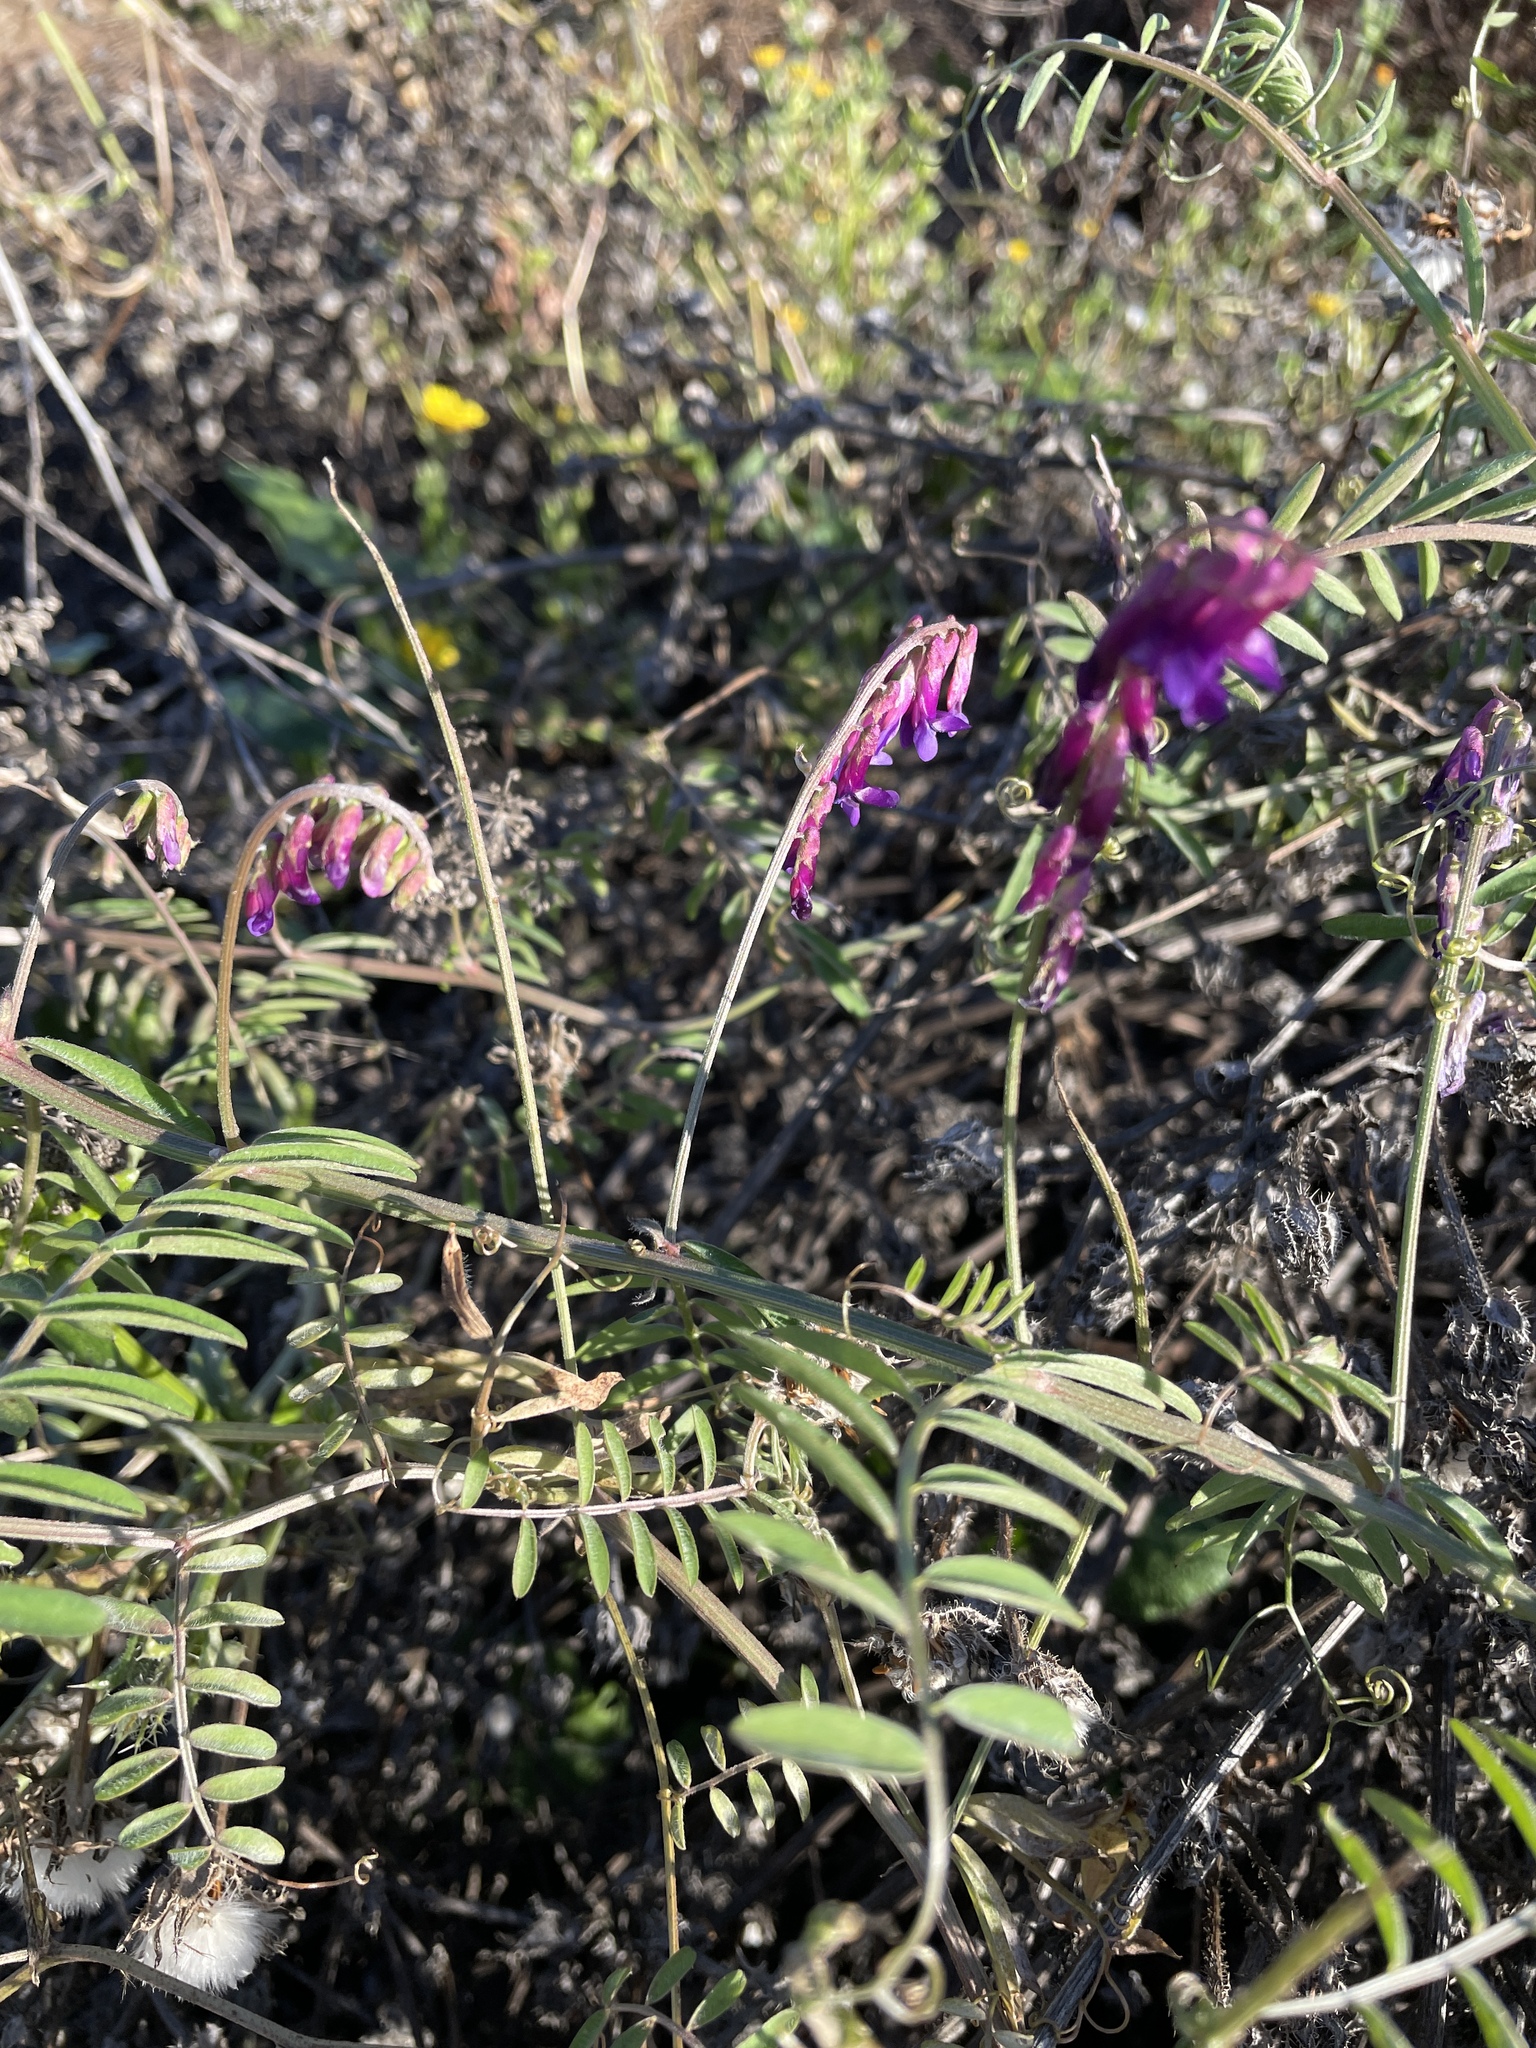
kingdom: Plantae
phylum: Tracheophyta
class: Magnoliopsida
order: Fabales
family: Fabaceae
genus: Vicia
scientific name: Vicia villosa
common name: Fodder vetch
